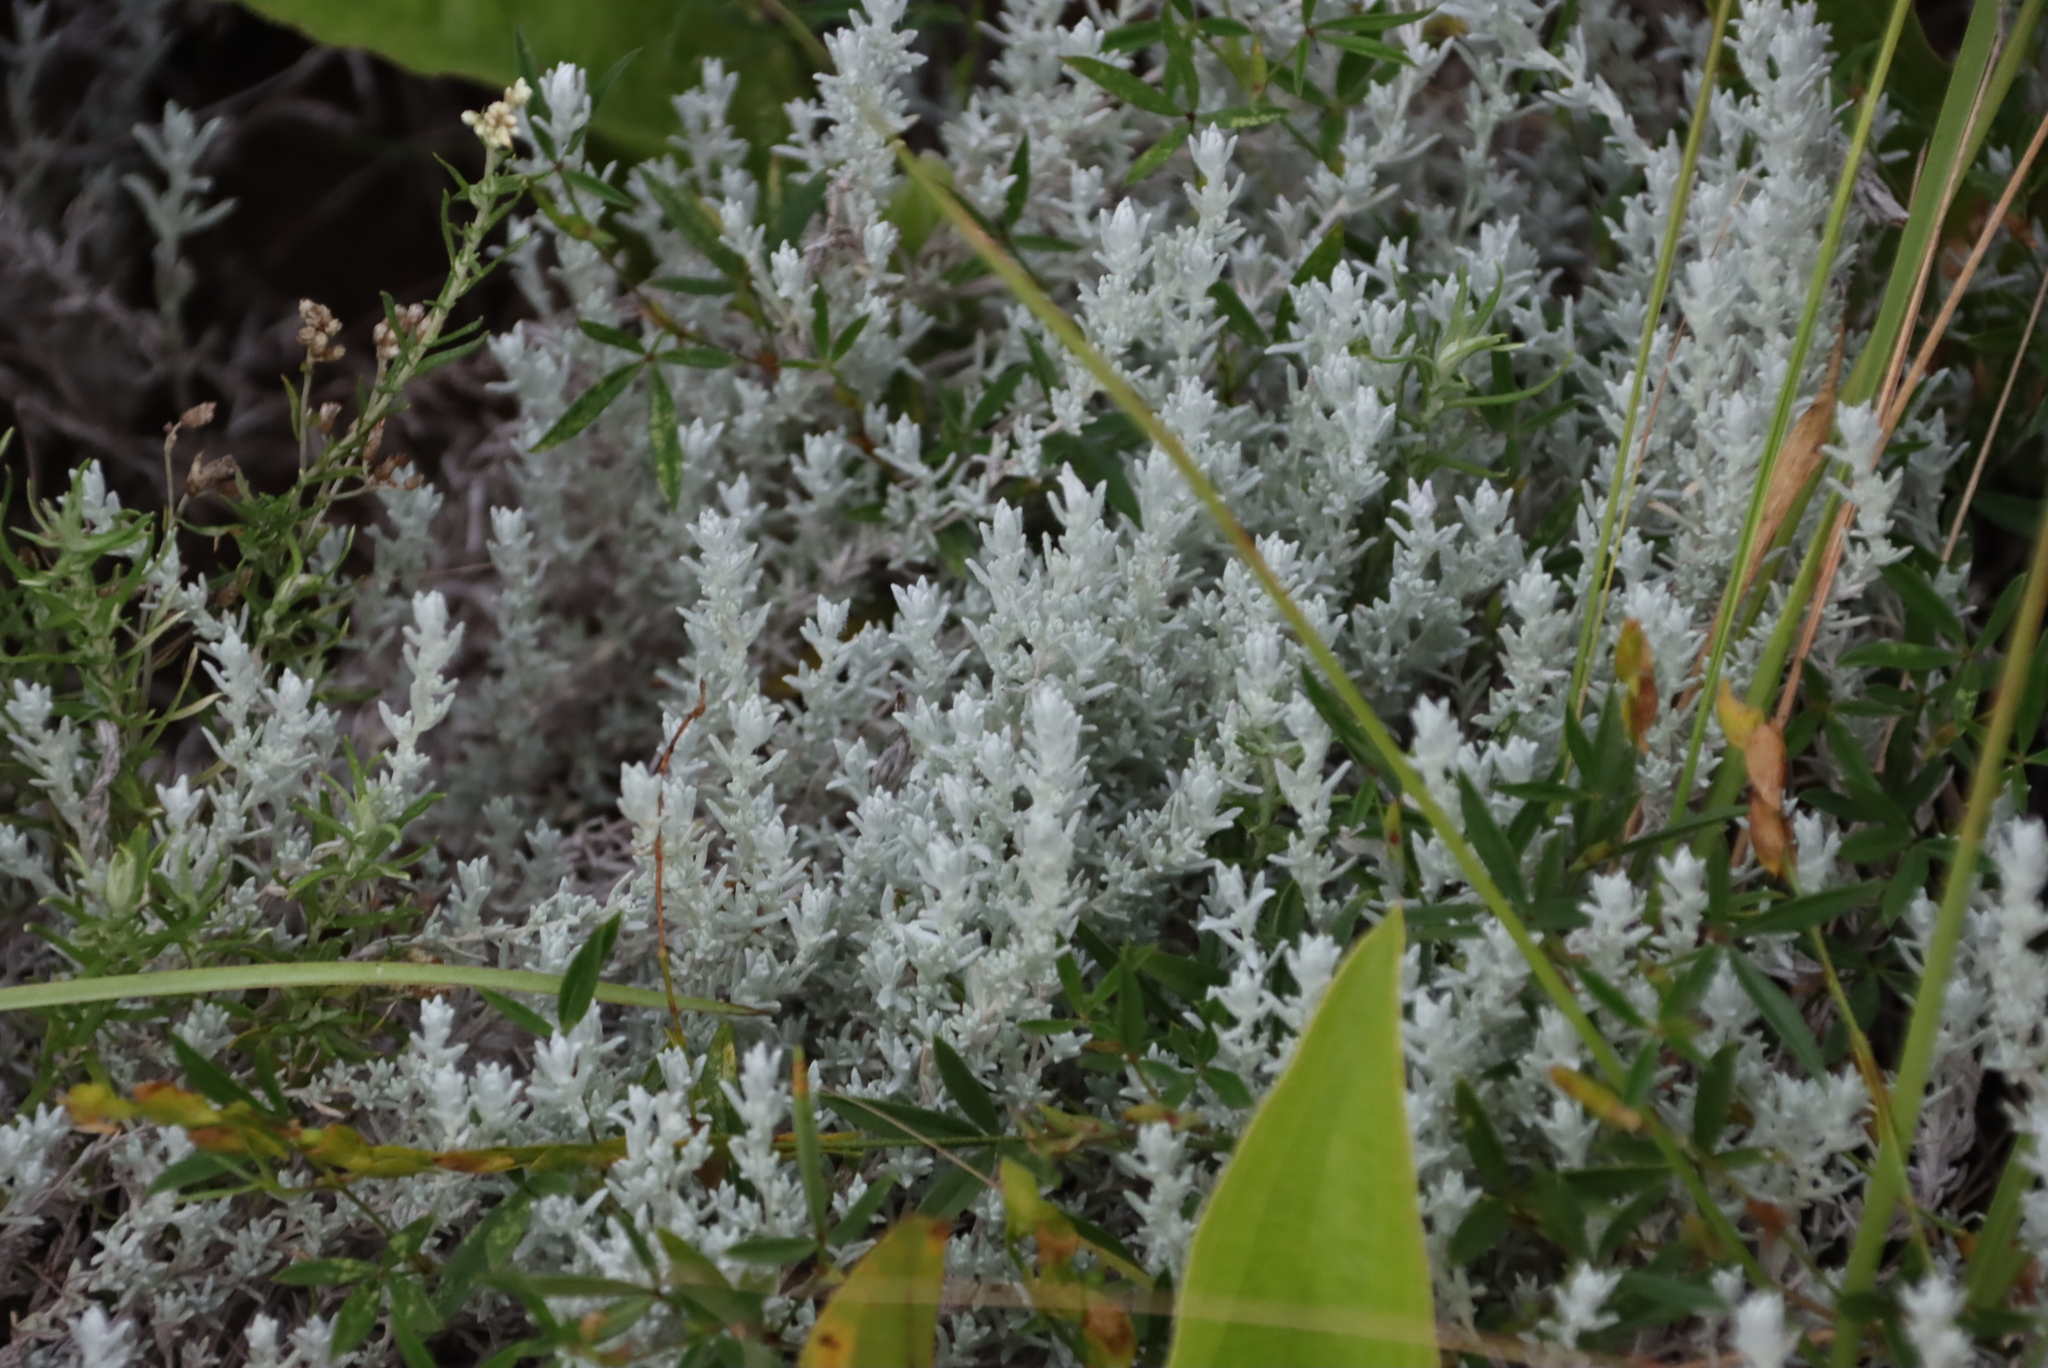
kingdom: Plantae
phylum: Tracheophyta
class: Magnoliopsida
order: Asterales
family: Asteraceae
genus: Helichrysum
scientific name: Helichrysum aureonitens
